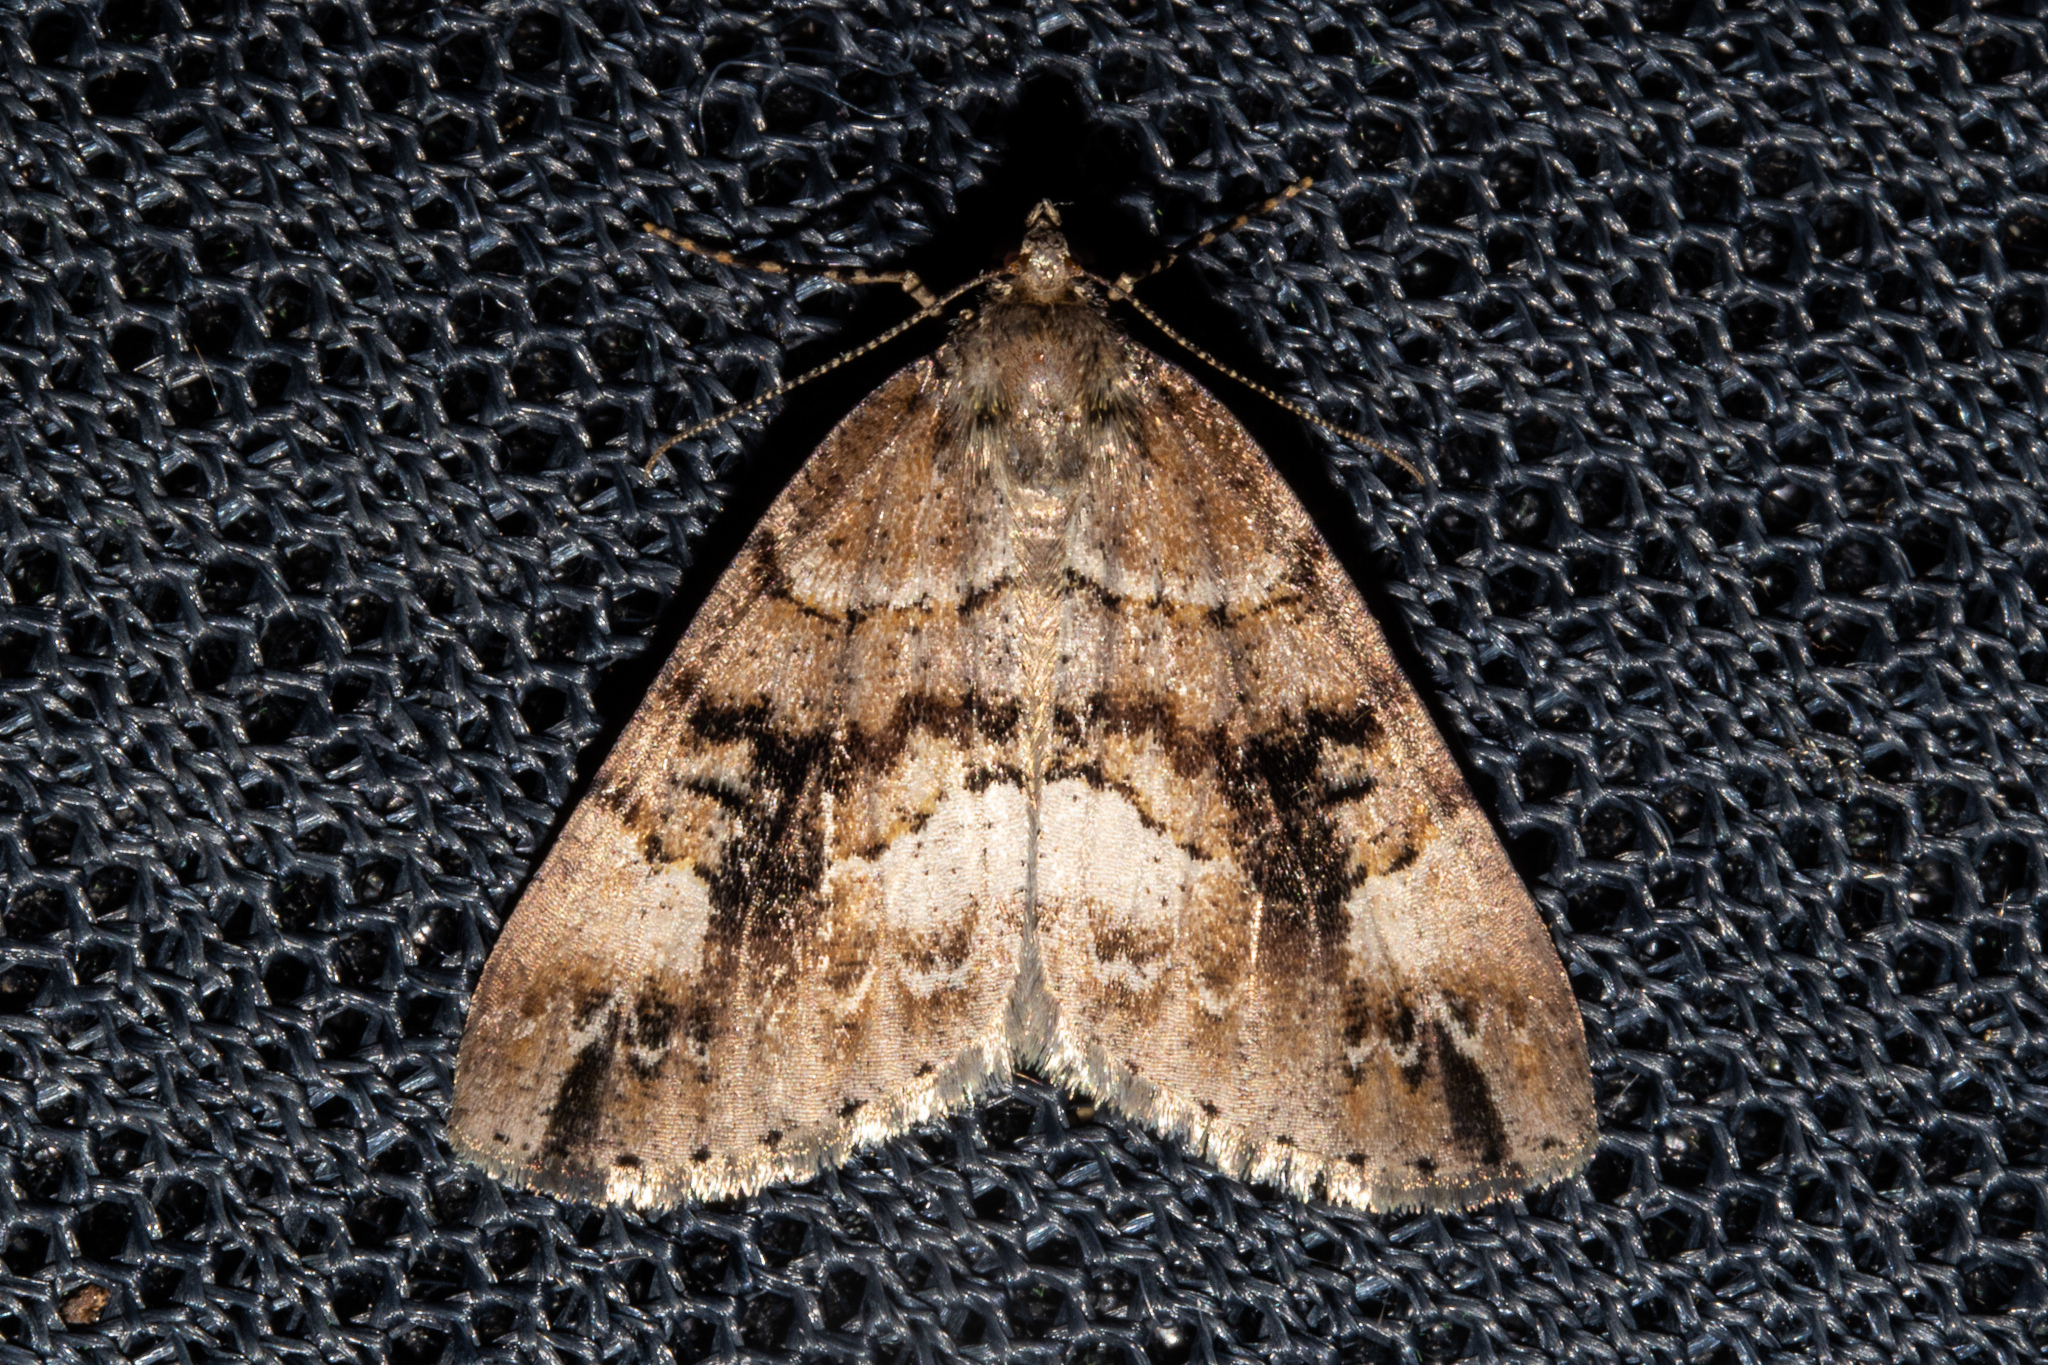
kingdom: Animalia
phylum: Arthropoda
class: Insecta
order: Lepidoptera
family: Geometridae
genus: Pseudocoremia
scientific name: Pseudocoremia productata
